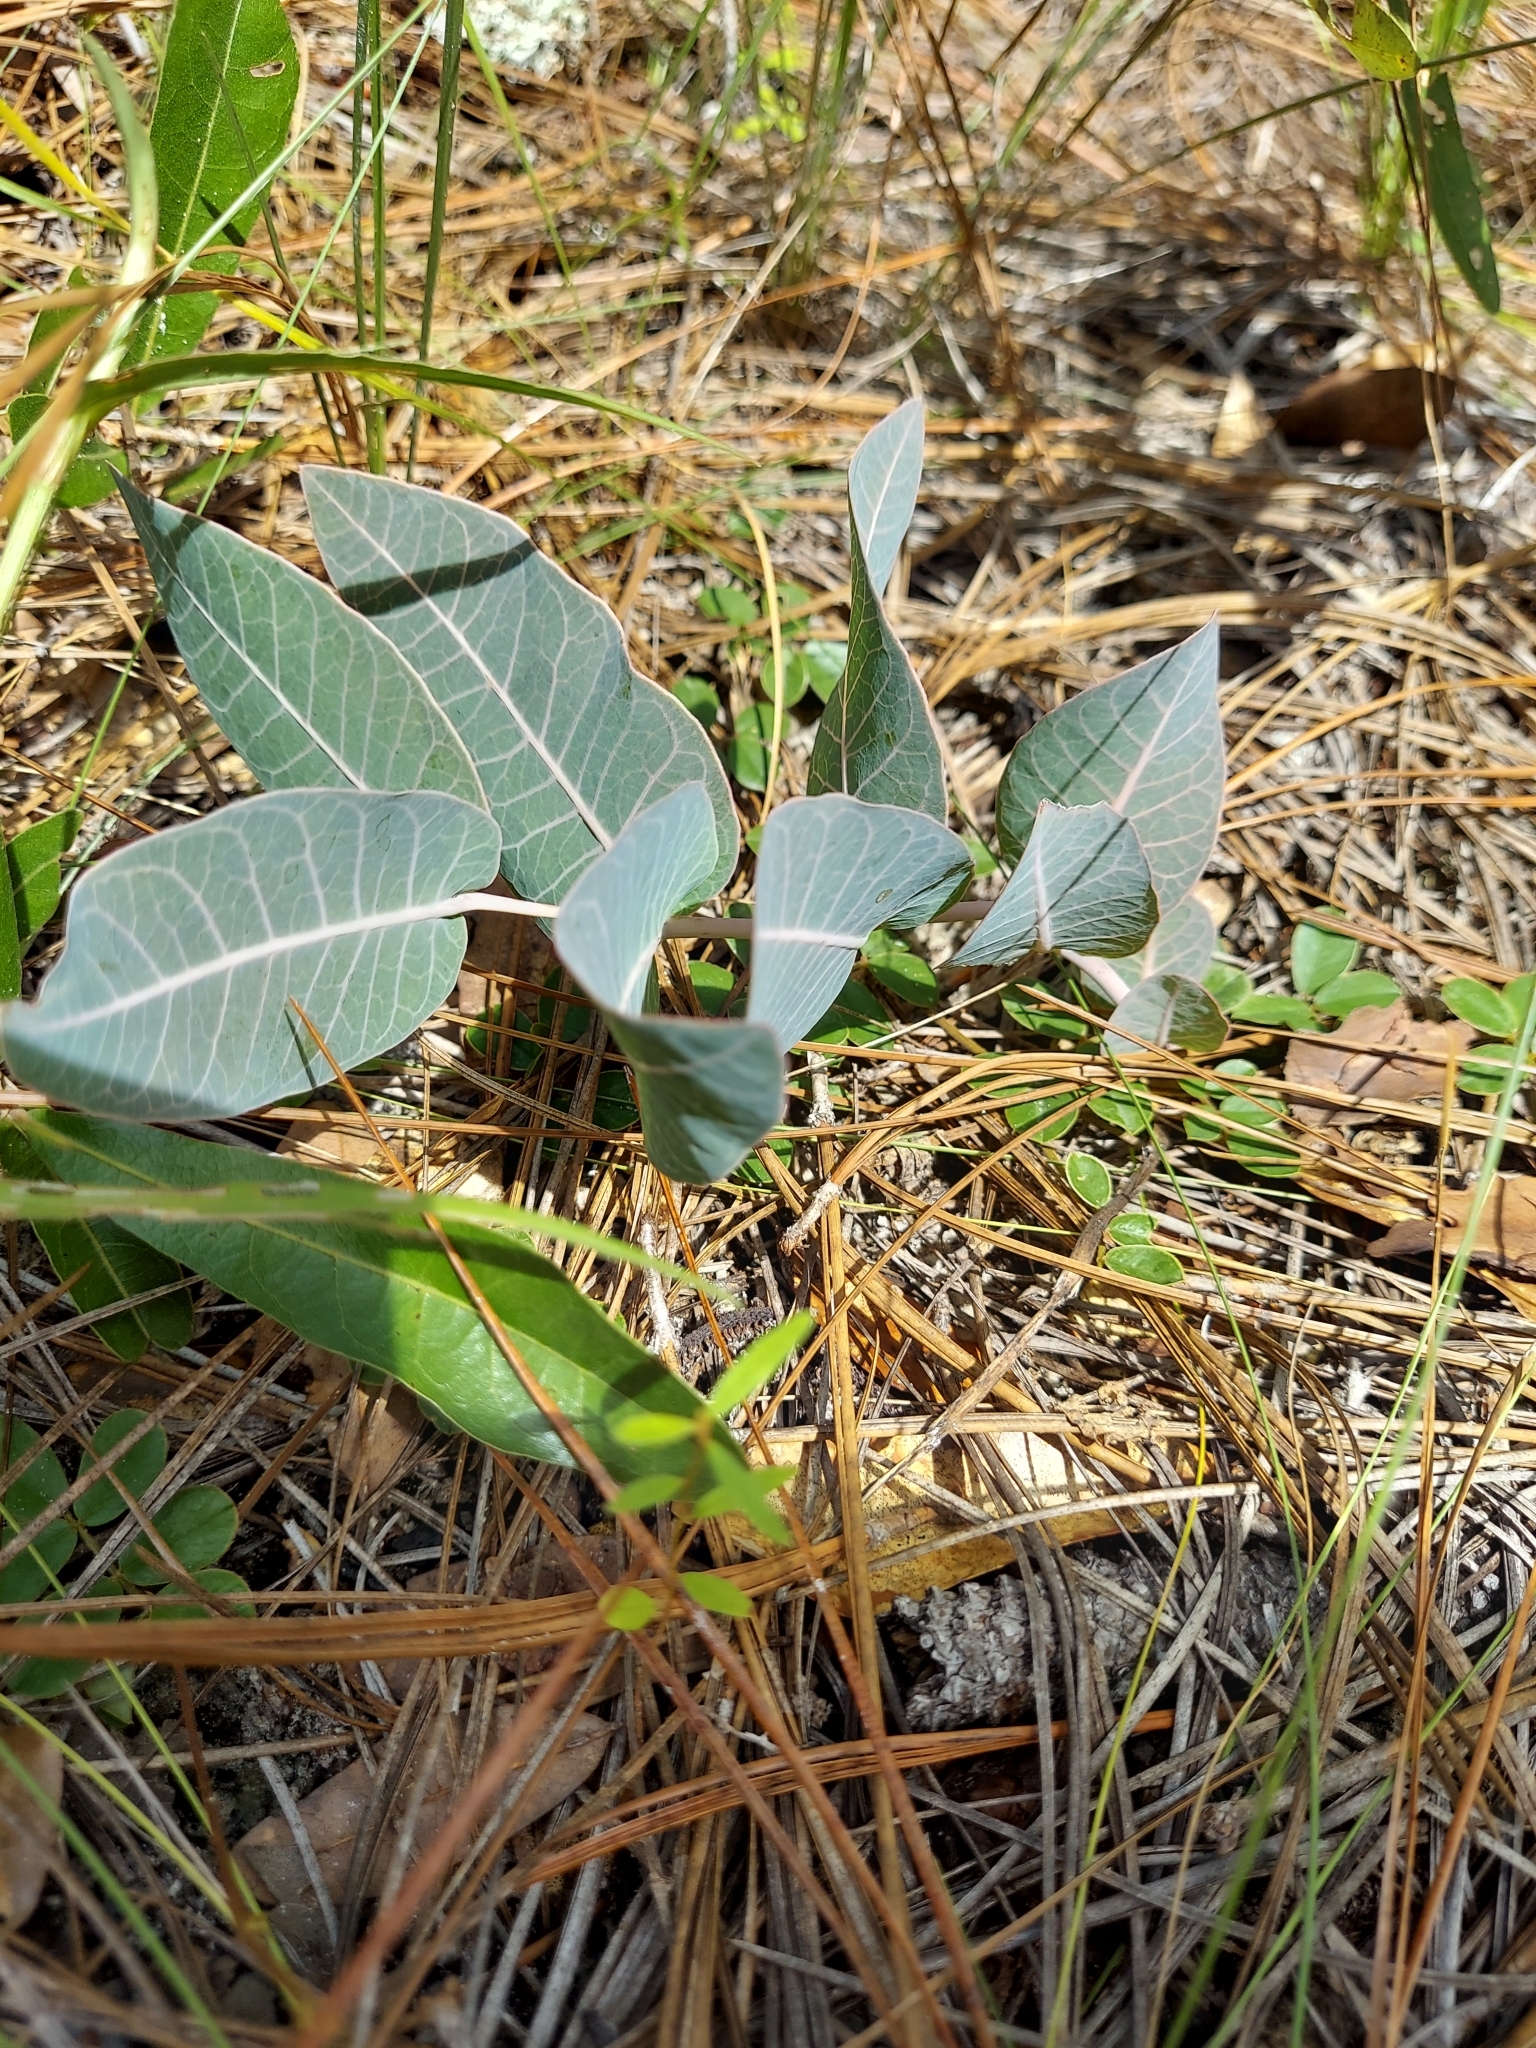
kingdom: Plantae
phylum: Tracheophyta
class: Magnoliopsida
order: Gentianales
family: Apocynaceae
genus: Asclepias
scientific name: Asclepias humistrata
